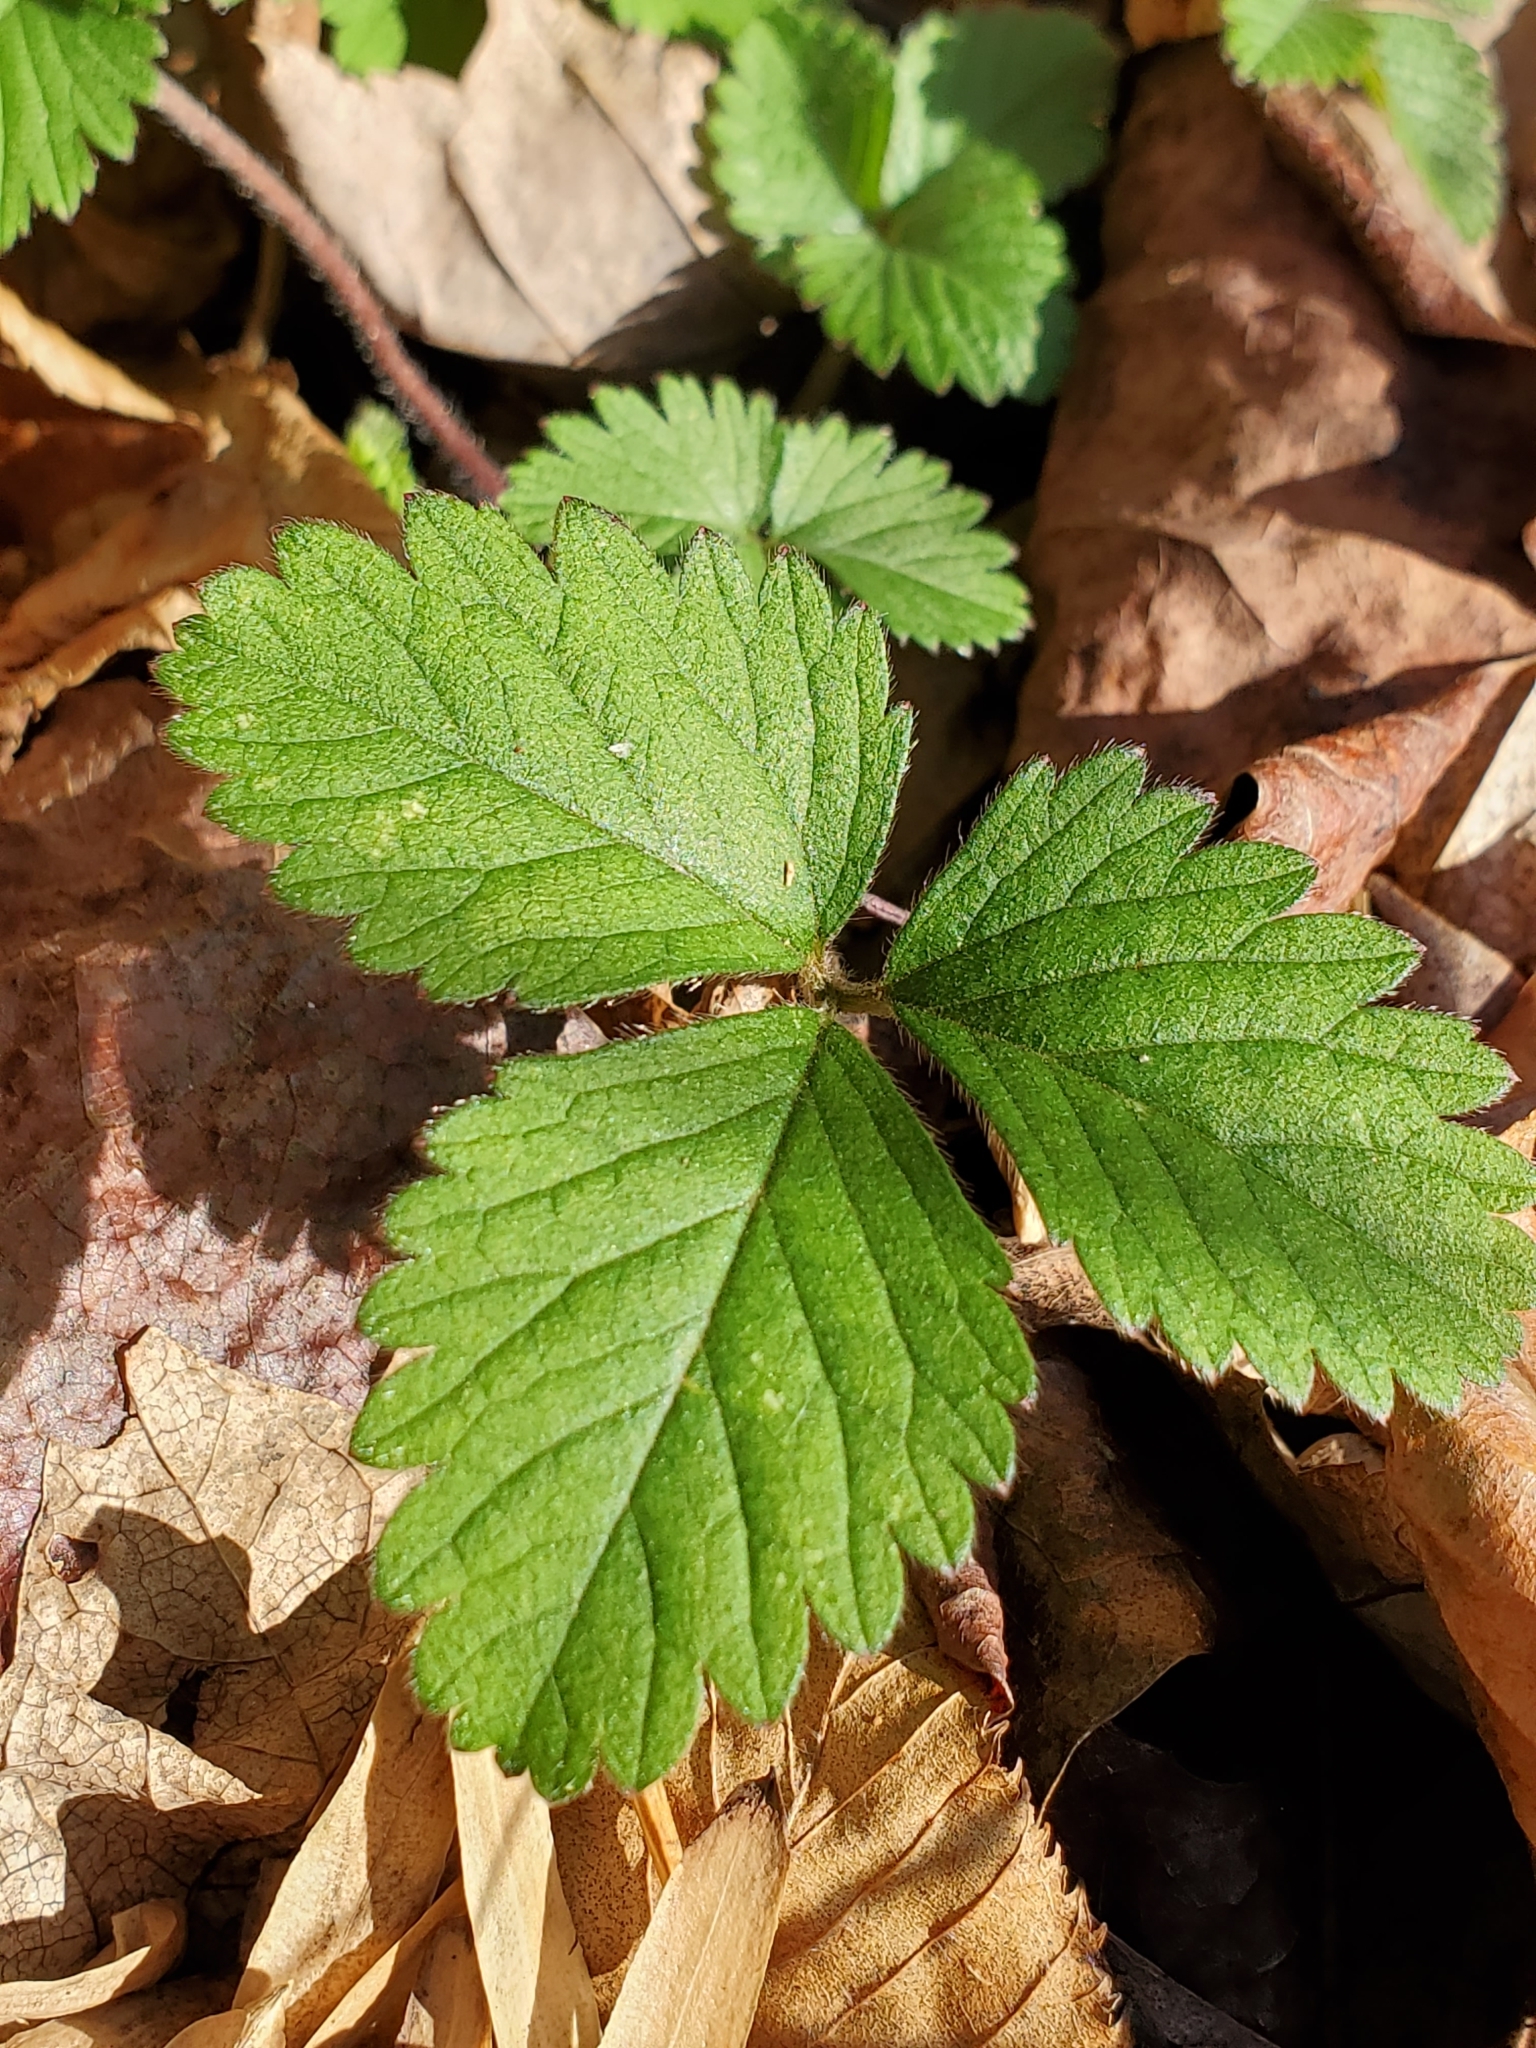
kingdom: Plantae
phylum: Tracheophyta
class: Magnoliopsida
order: Rosales
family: Rosaceae
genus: Potentilla
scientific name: Potentilla indica
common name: Yellow-flowered strawberry
